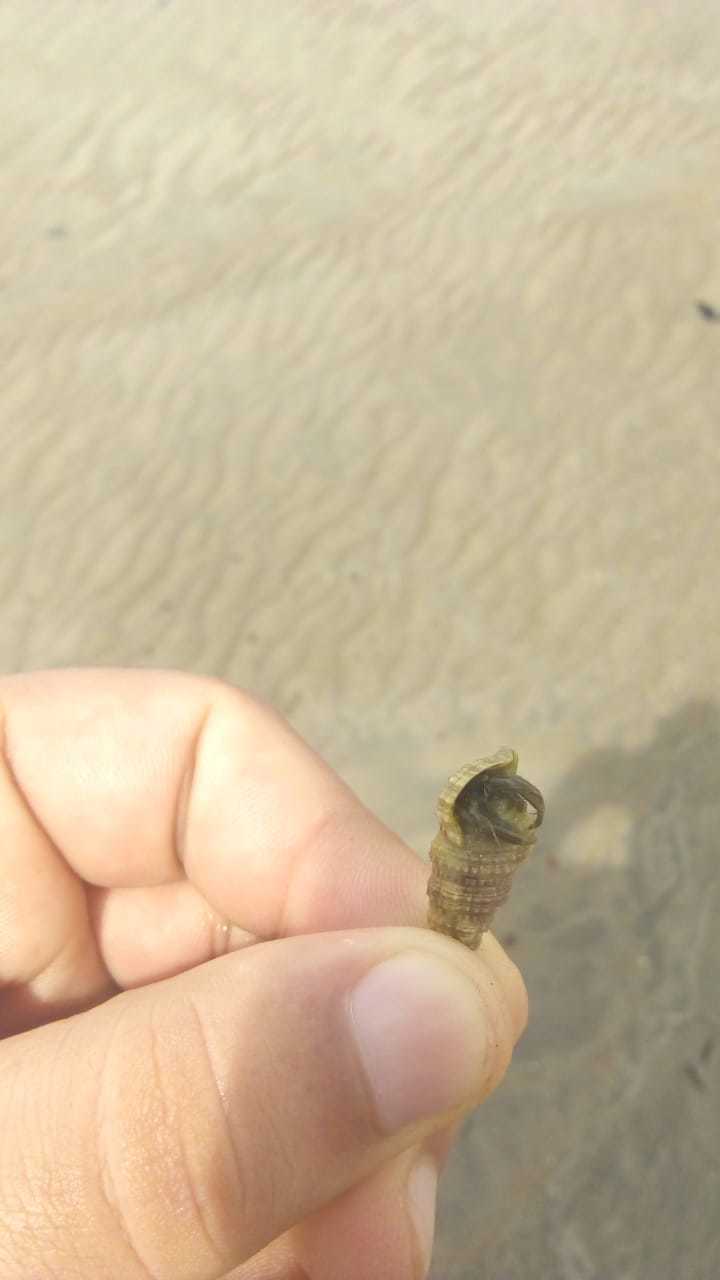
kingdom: Animalia
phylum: Mollusca
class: Gastropoda
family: Cerithiidae
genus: Cerithium
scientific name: Cerithium atratum
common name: Dark cerith
